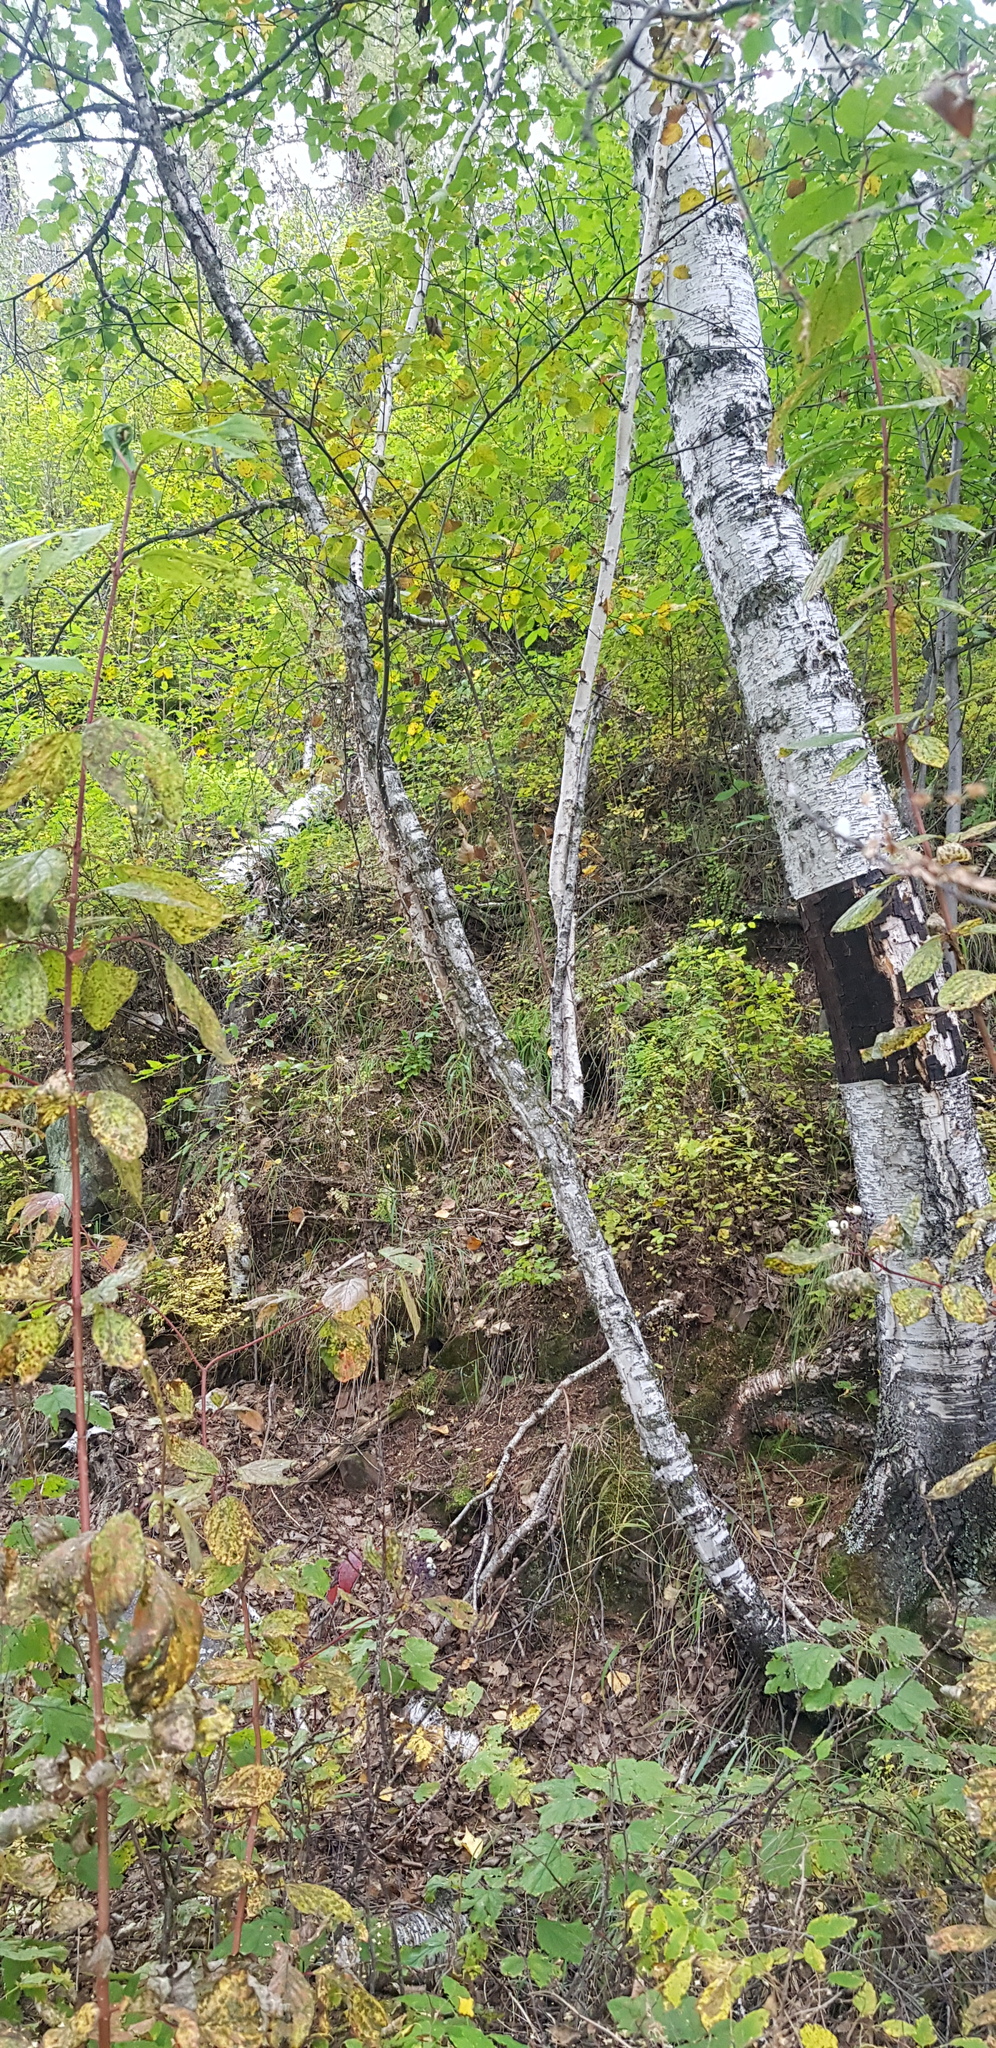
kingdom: Plantae
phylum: Tracheophyta
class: Magnoliopsida
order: Fagales
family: Betulaceae
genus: Betula
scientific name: Betula pendula
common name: Silver birch
